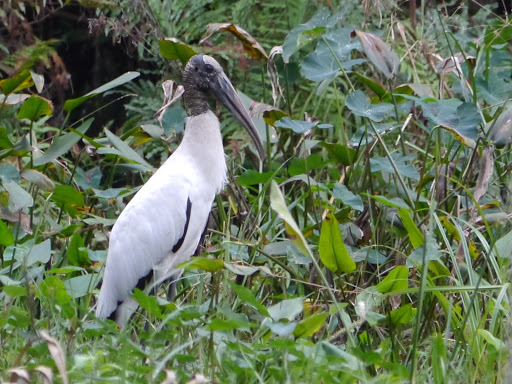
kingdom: Animalia
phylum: Chordata
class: Aves
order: Ciconiiformes
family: Ciconiidae
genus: Mycteria
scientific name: Mycteria americana
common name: Wood stork
